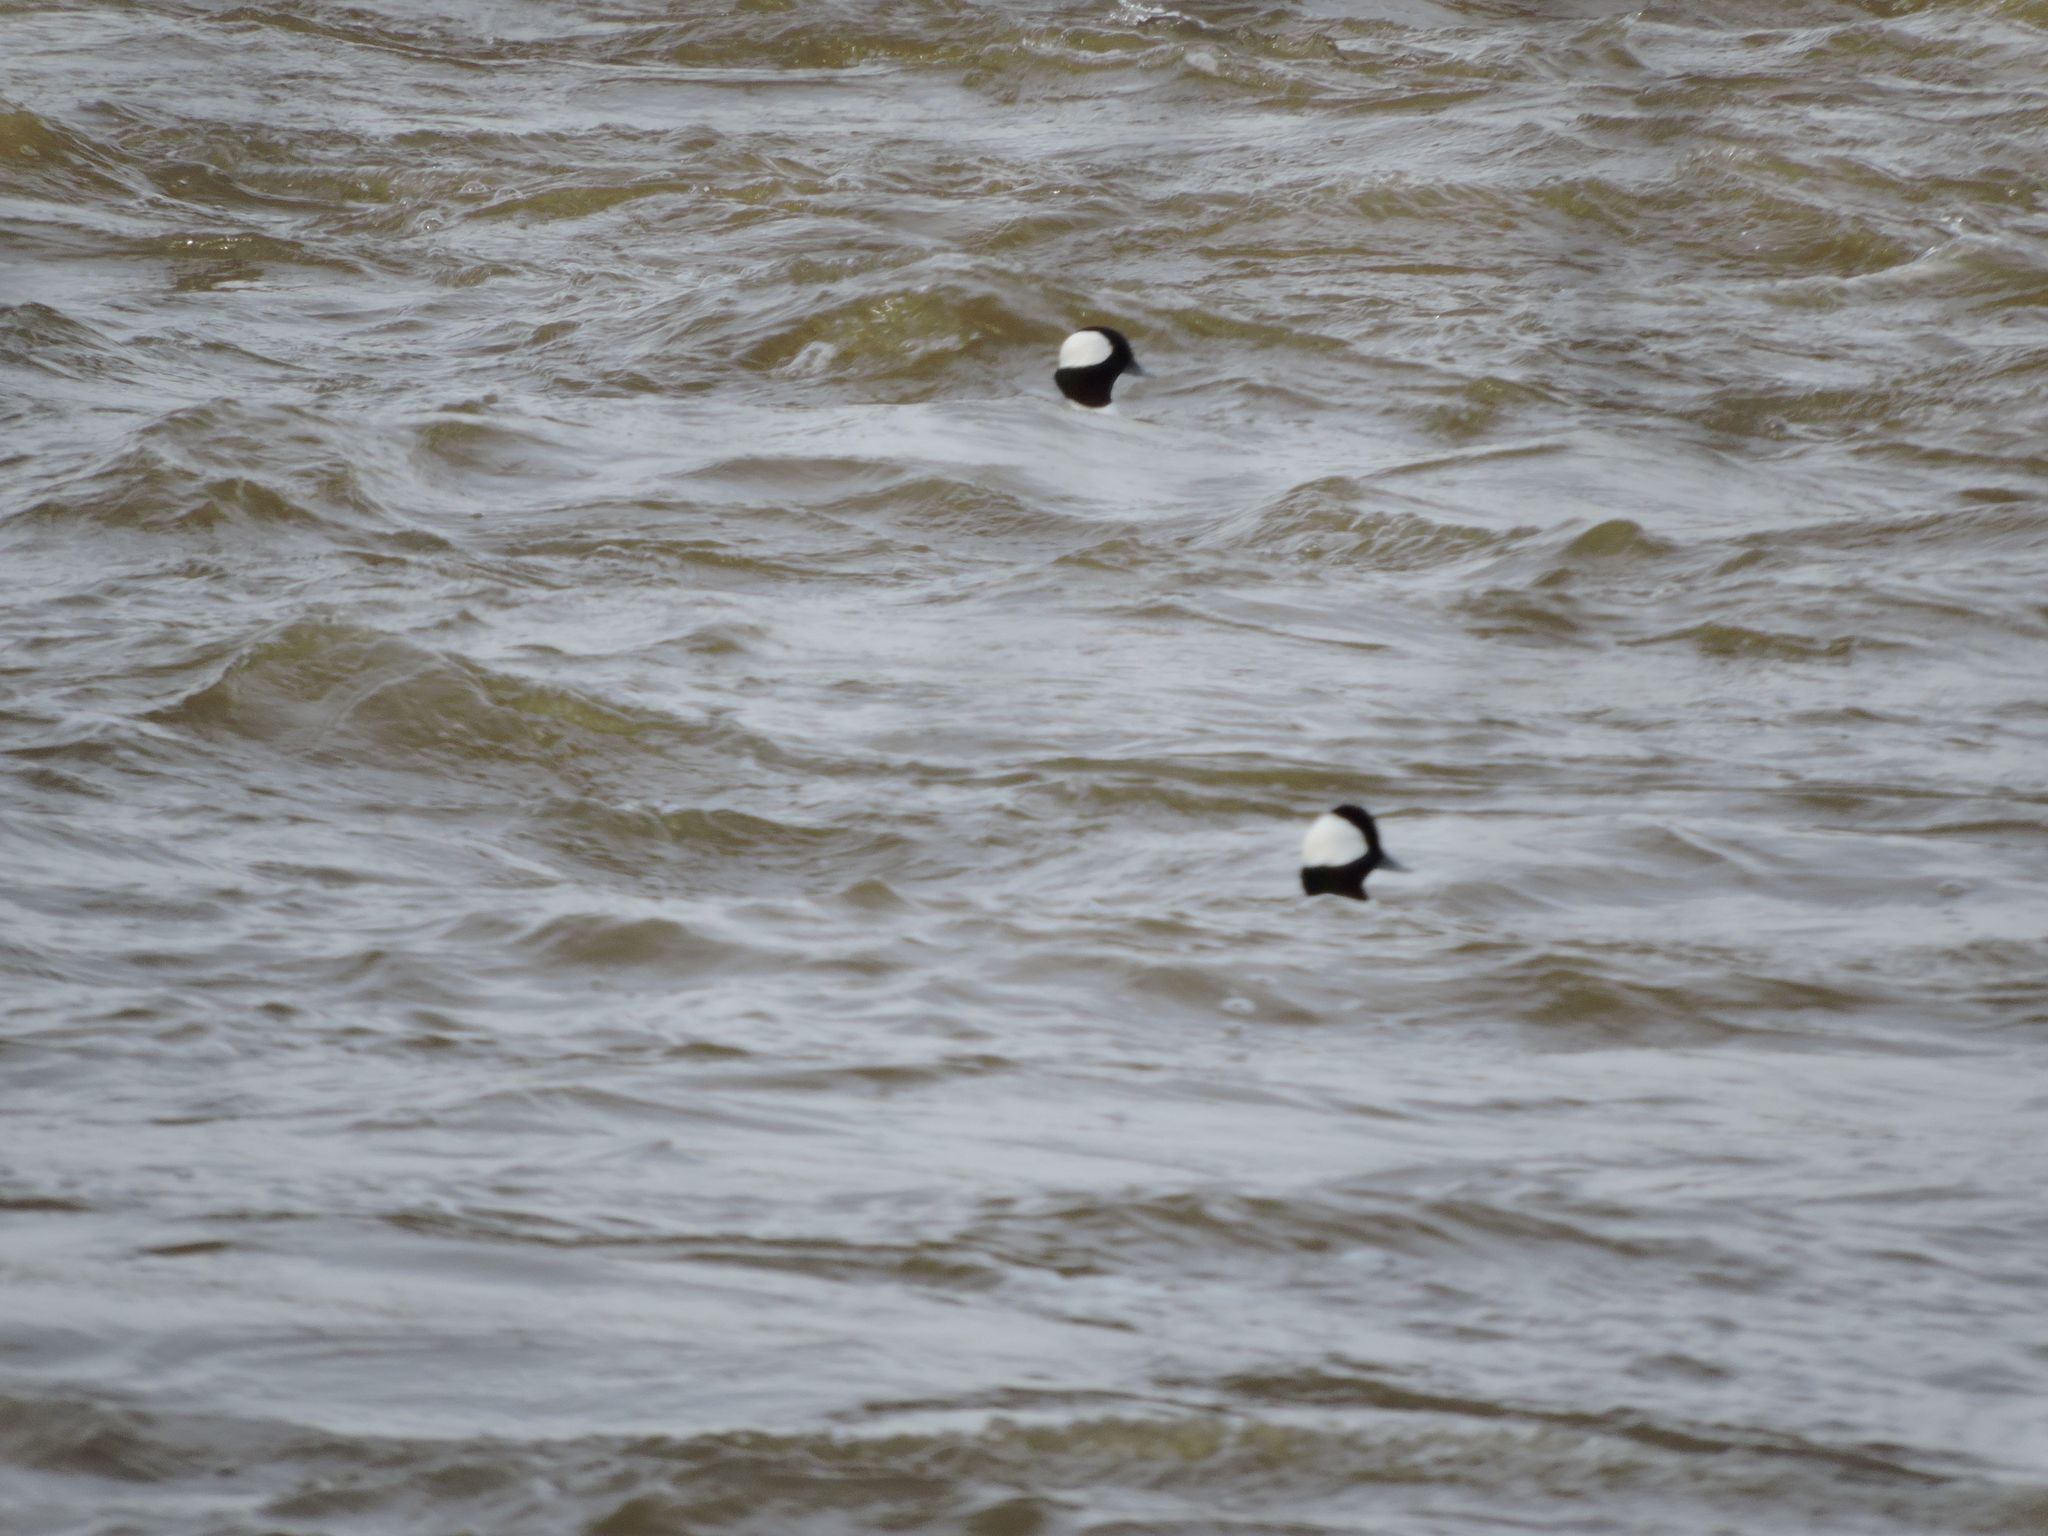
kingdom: Animalia
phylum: Chordata
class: Aves
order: Anseriformes
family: Anatidae
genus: Bucephala
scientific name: Bucephala albeola
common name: Bufflehead
